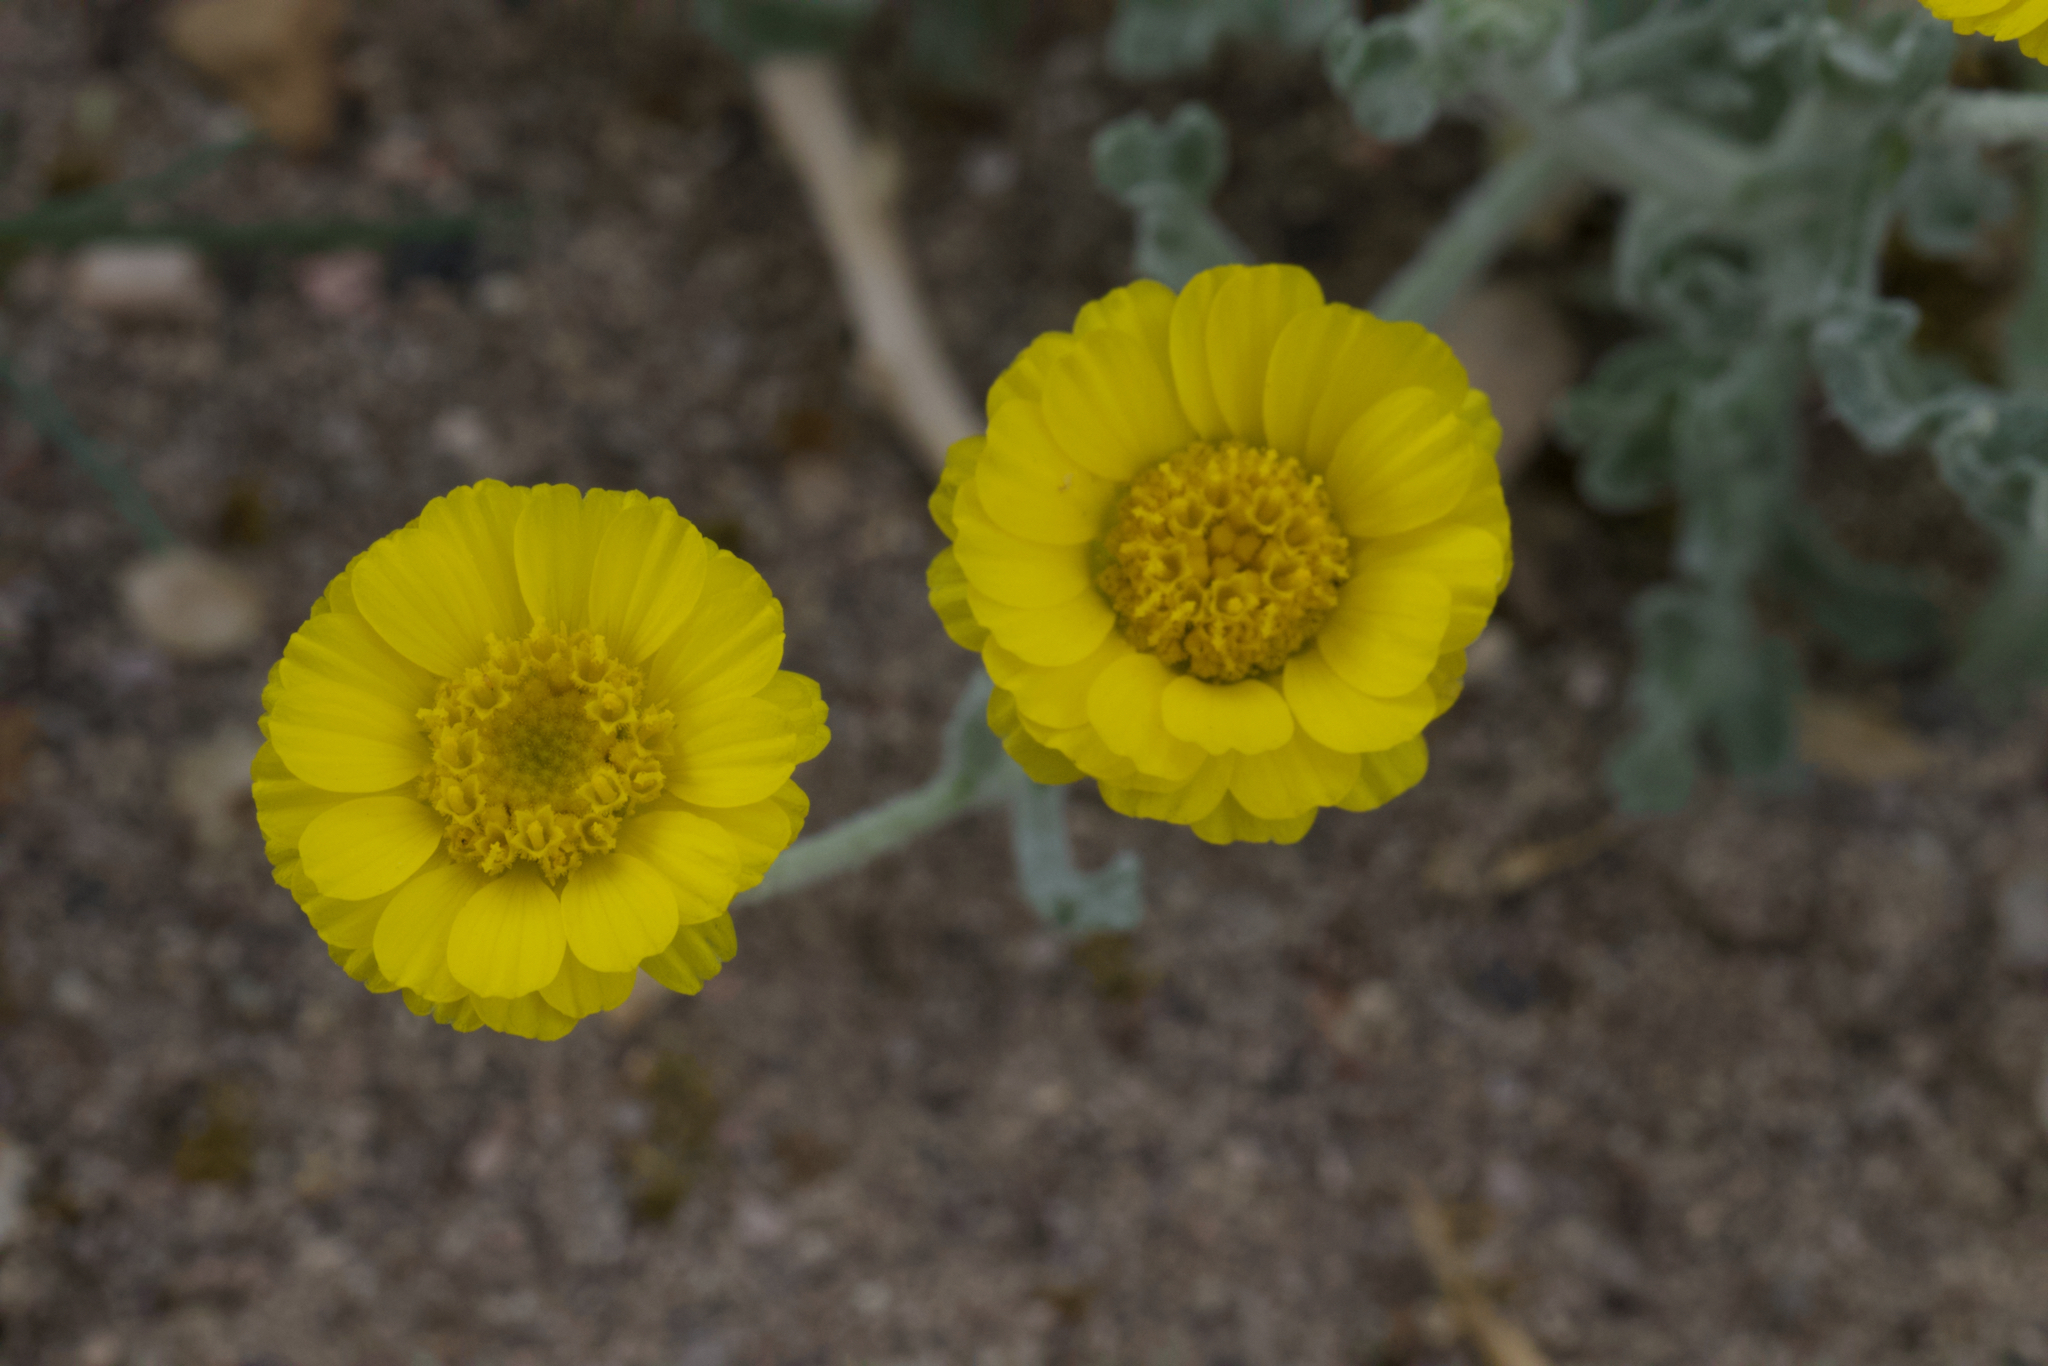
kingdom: Plantae
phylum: Tracheophyta
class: Magnoliopsida
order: Asterales
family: Asteraceae
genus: Baileya
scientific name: Baileya pleniradiata
